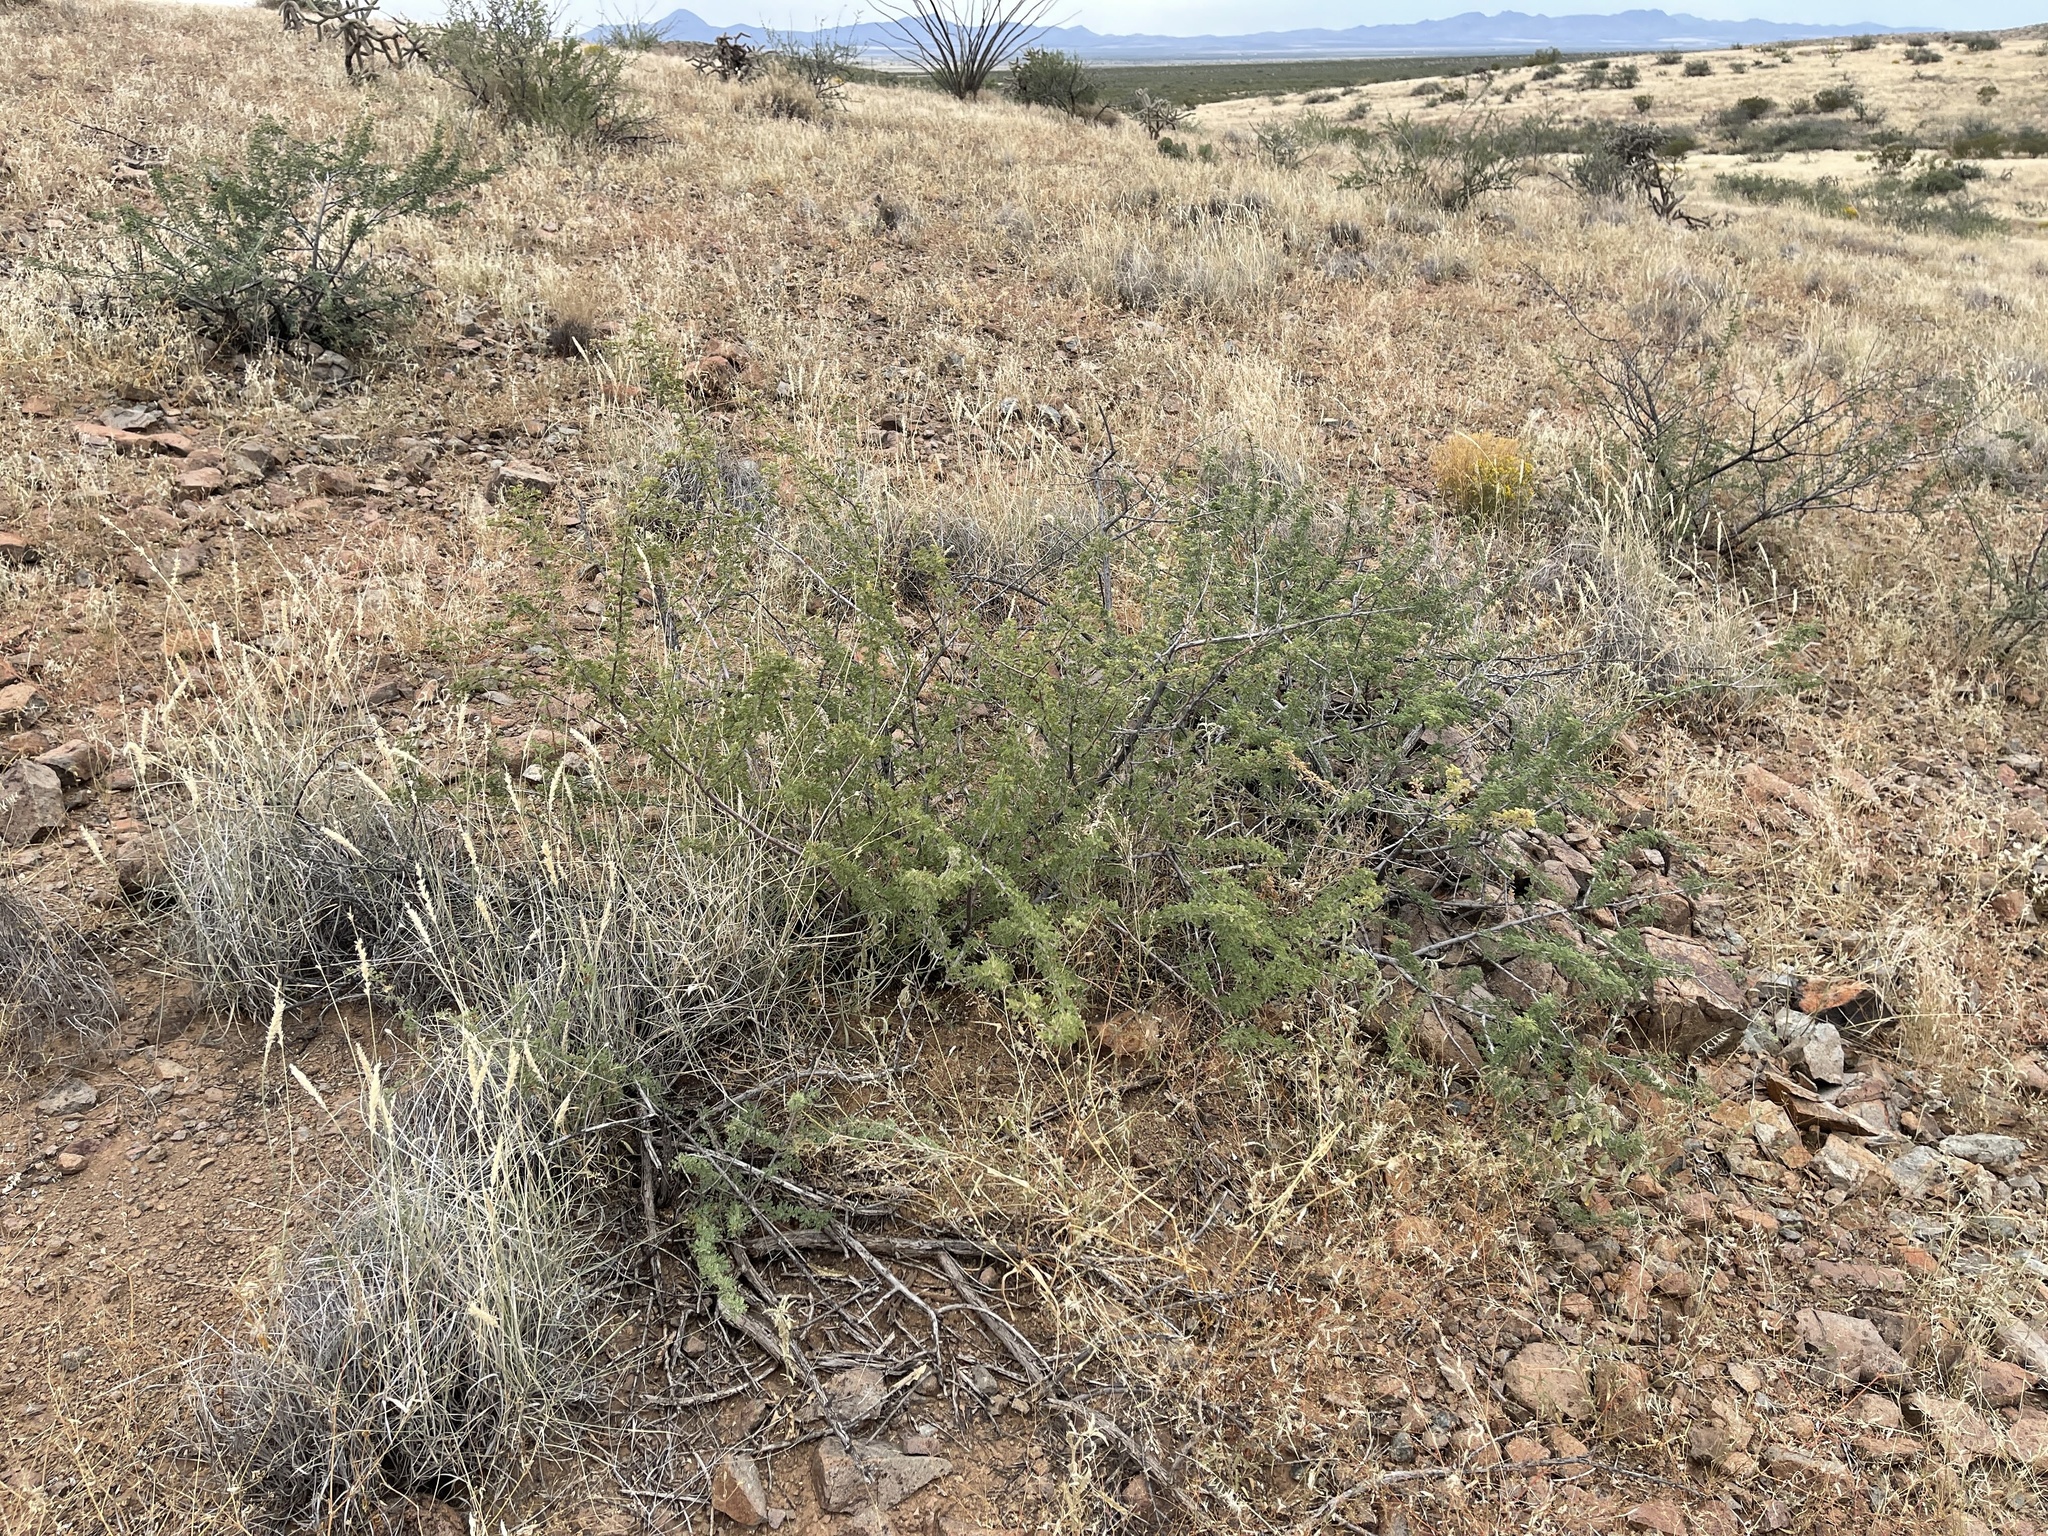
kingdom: Plantae
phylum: Tracheophyta
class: Magnoliopsida
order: Fabales
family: Fabaceae
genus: Senegalia
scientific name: Senegalia greggii
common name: Texas-mimosa
